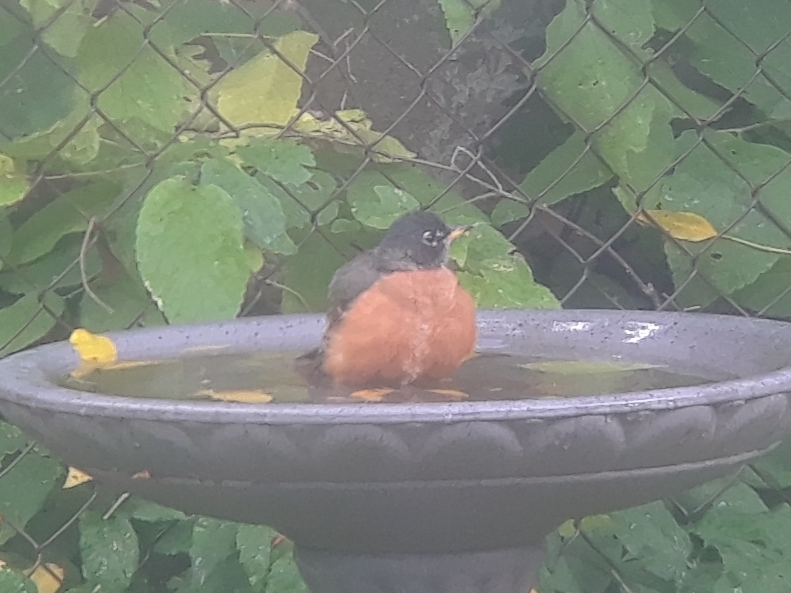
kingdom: Animalia
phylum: Chordata
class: Aves
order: Passeriformes
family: Turdidae
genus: Turdus
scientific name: Turdus migratorius
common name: American robin
